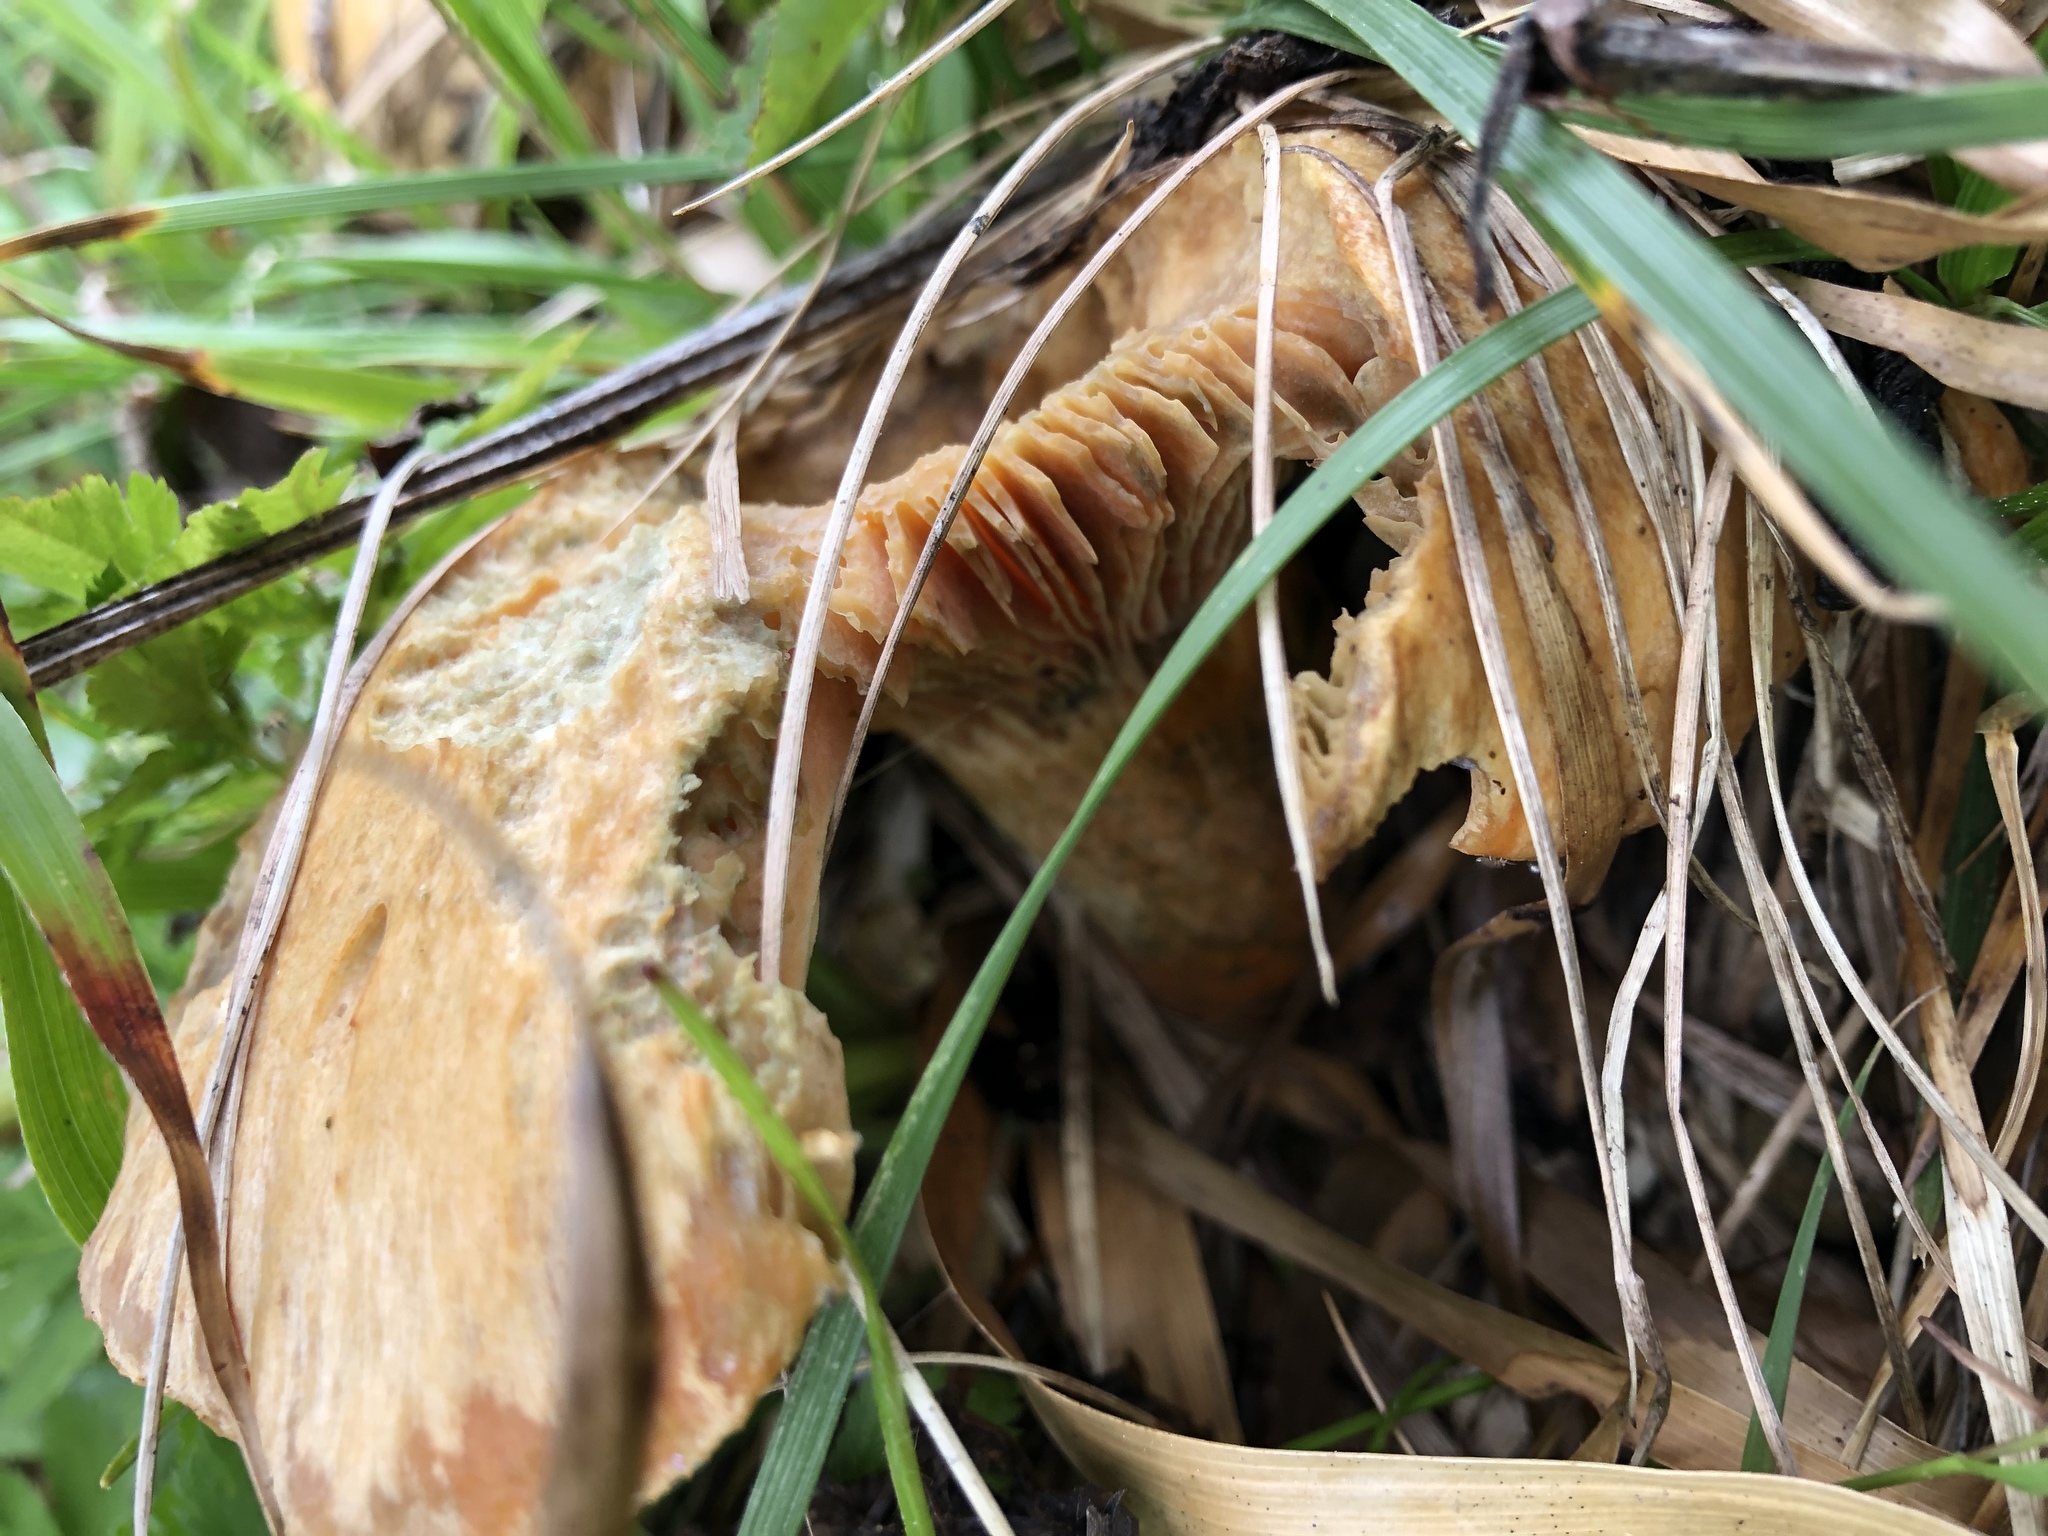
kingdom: Fungi
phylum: Basidiomycota
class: Agaricomycetes
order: Russulales
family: Russulaceae
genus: Lactarius
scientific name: Lactarius deterrimus
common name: False saffron milkcap
